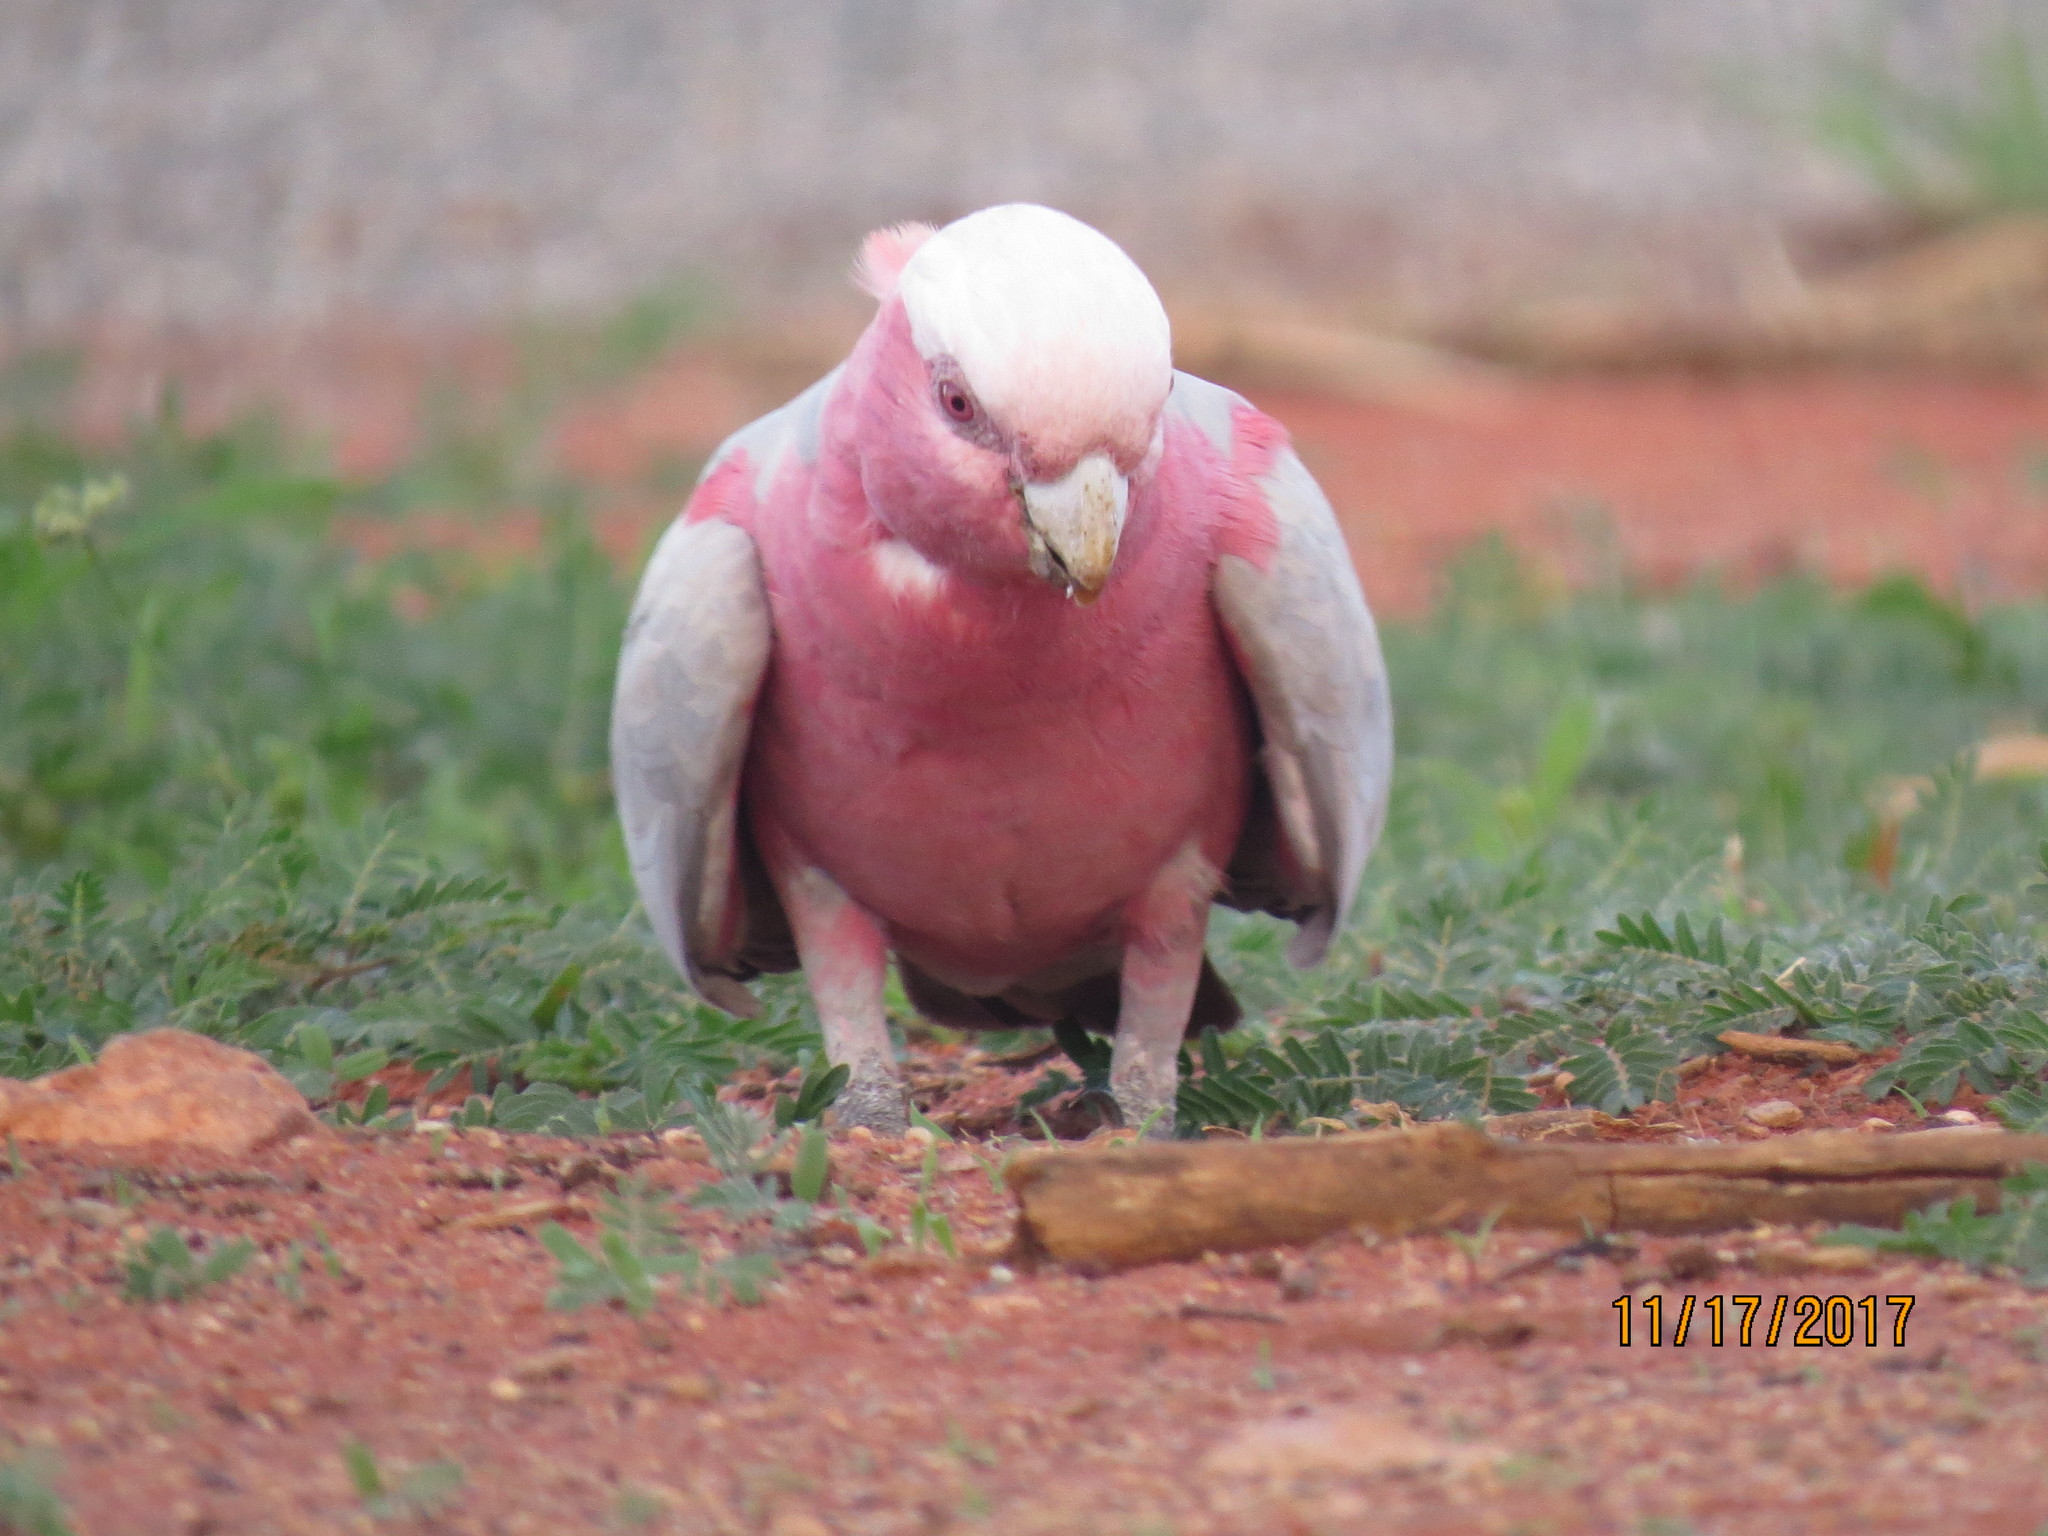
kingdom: Animalia
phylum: Chordata
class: Aves
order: Psittaciformes
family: Psittacidae
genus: Eolophus
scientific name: Eolophus roseicapilla
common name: Galah
